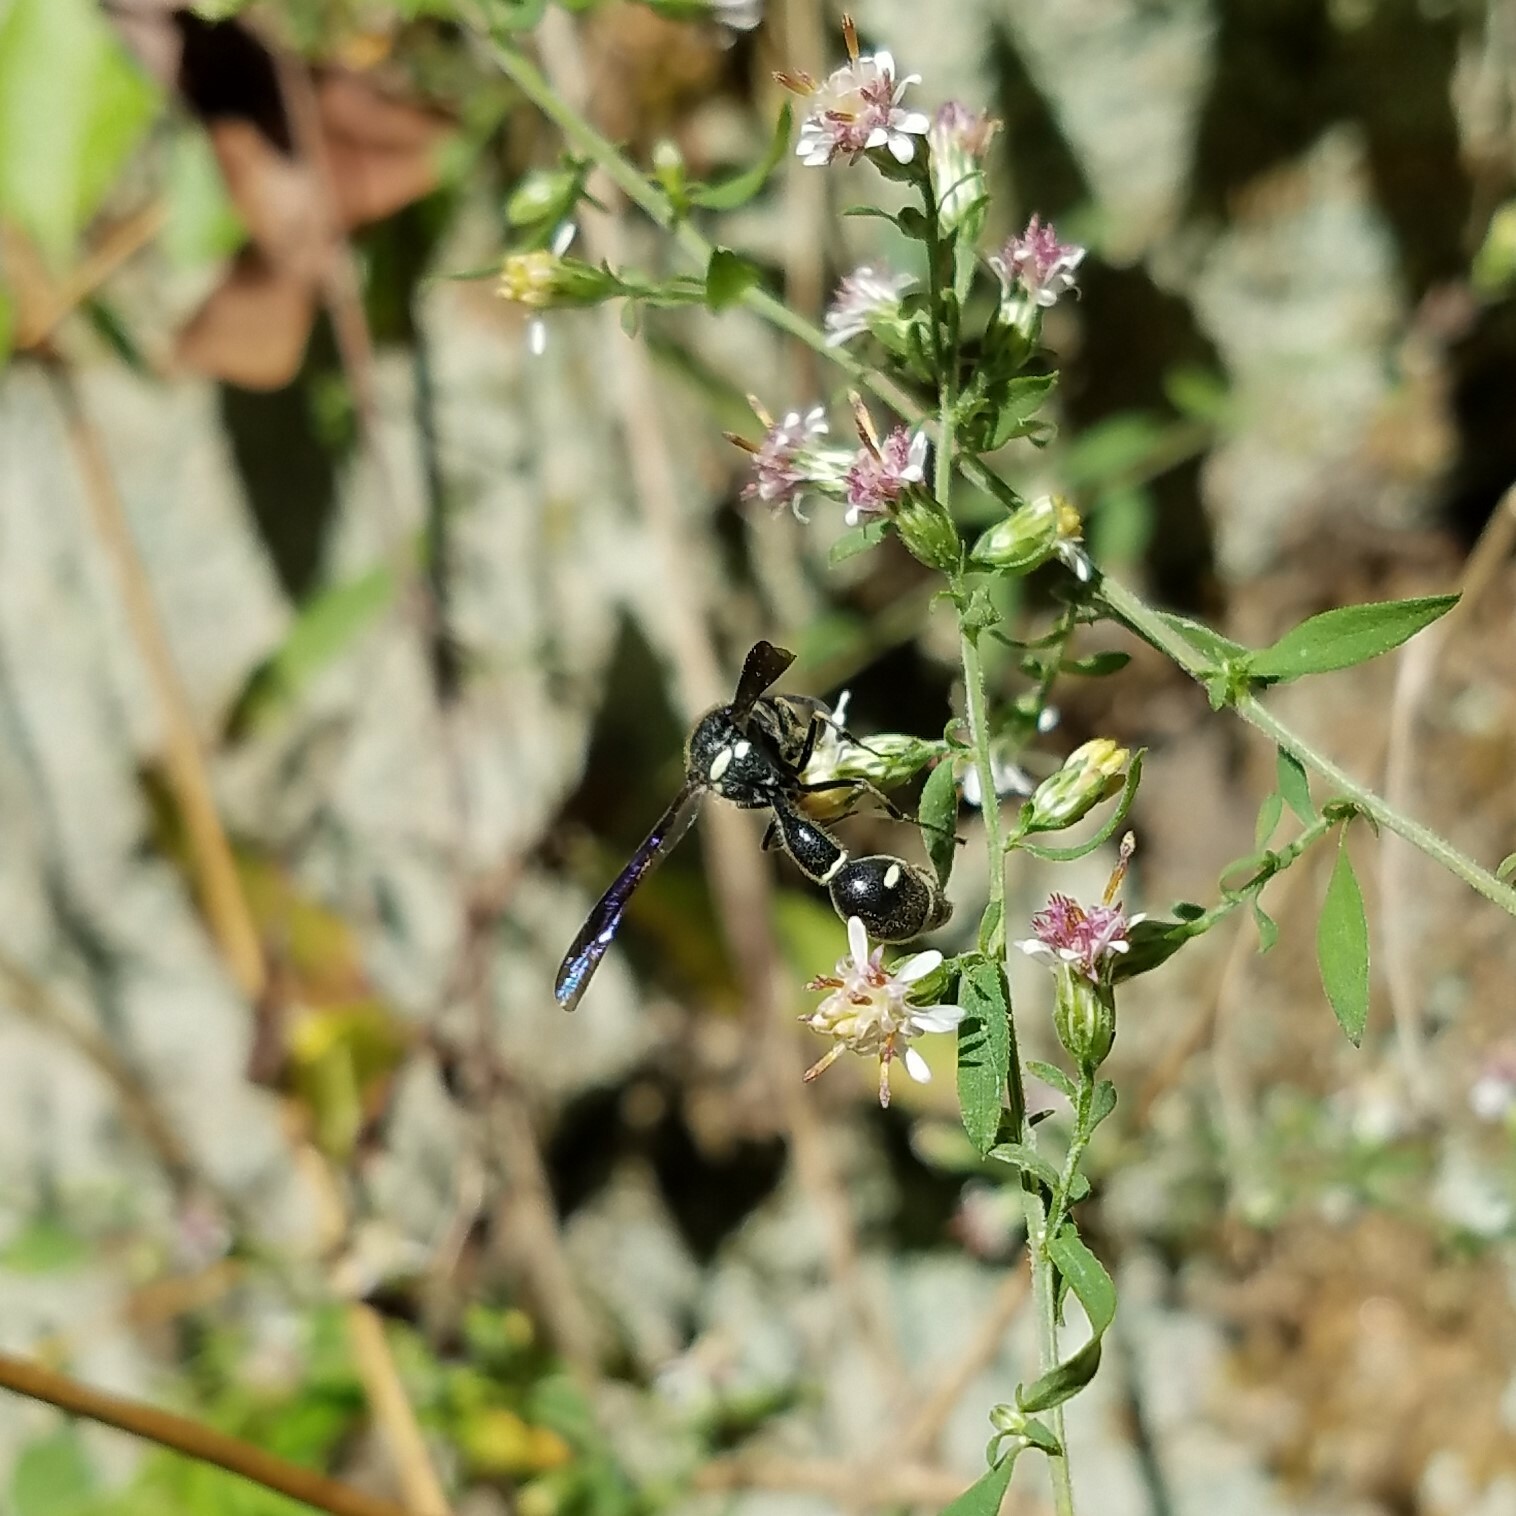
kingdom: Animalia
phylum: Arthropoda
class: Insecta
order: Hymenoptera
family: Vespidae
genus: Eumenes
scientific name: Eumenes fraternus
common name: Fraternal potter wasp
